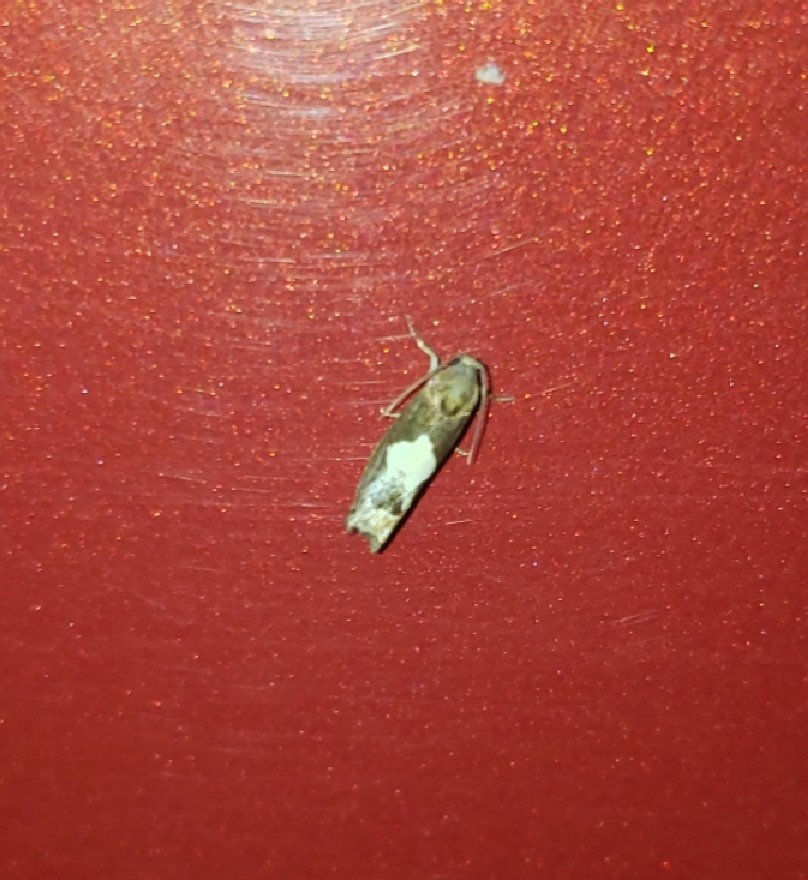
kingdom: Animalia
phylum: Arthropoda
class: Insecta
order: Lepidoptera
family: Tortricidae
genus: Epiblema
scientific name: Epiblema otiosana
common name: Bidens borer moth
